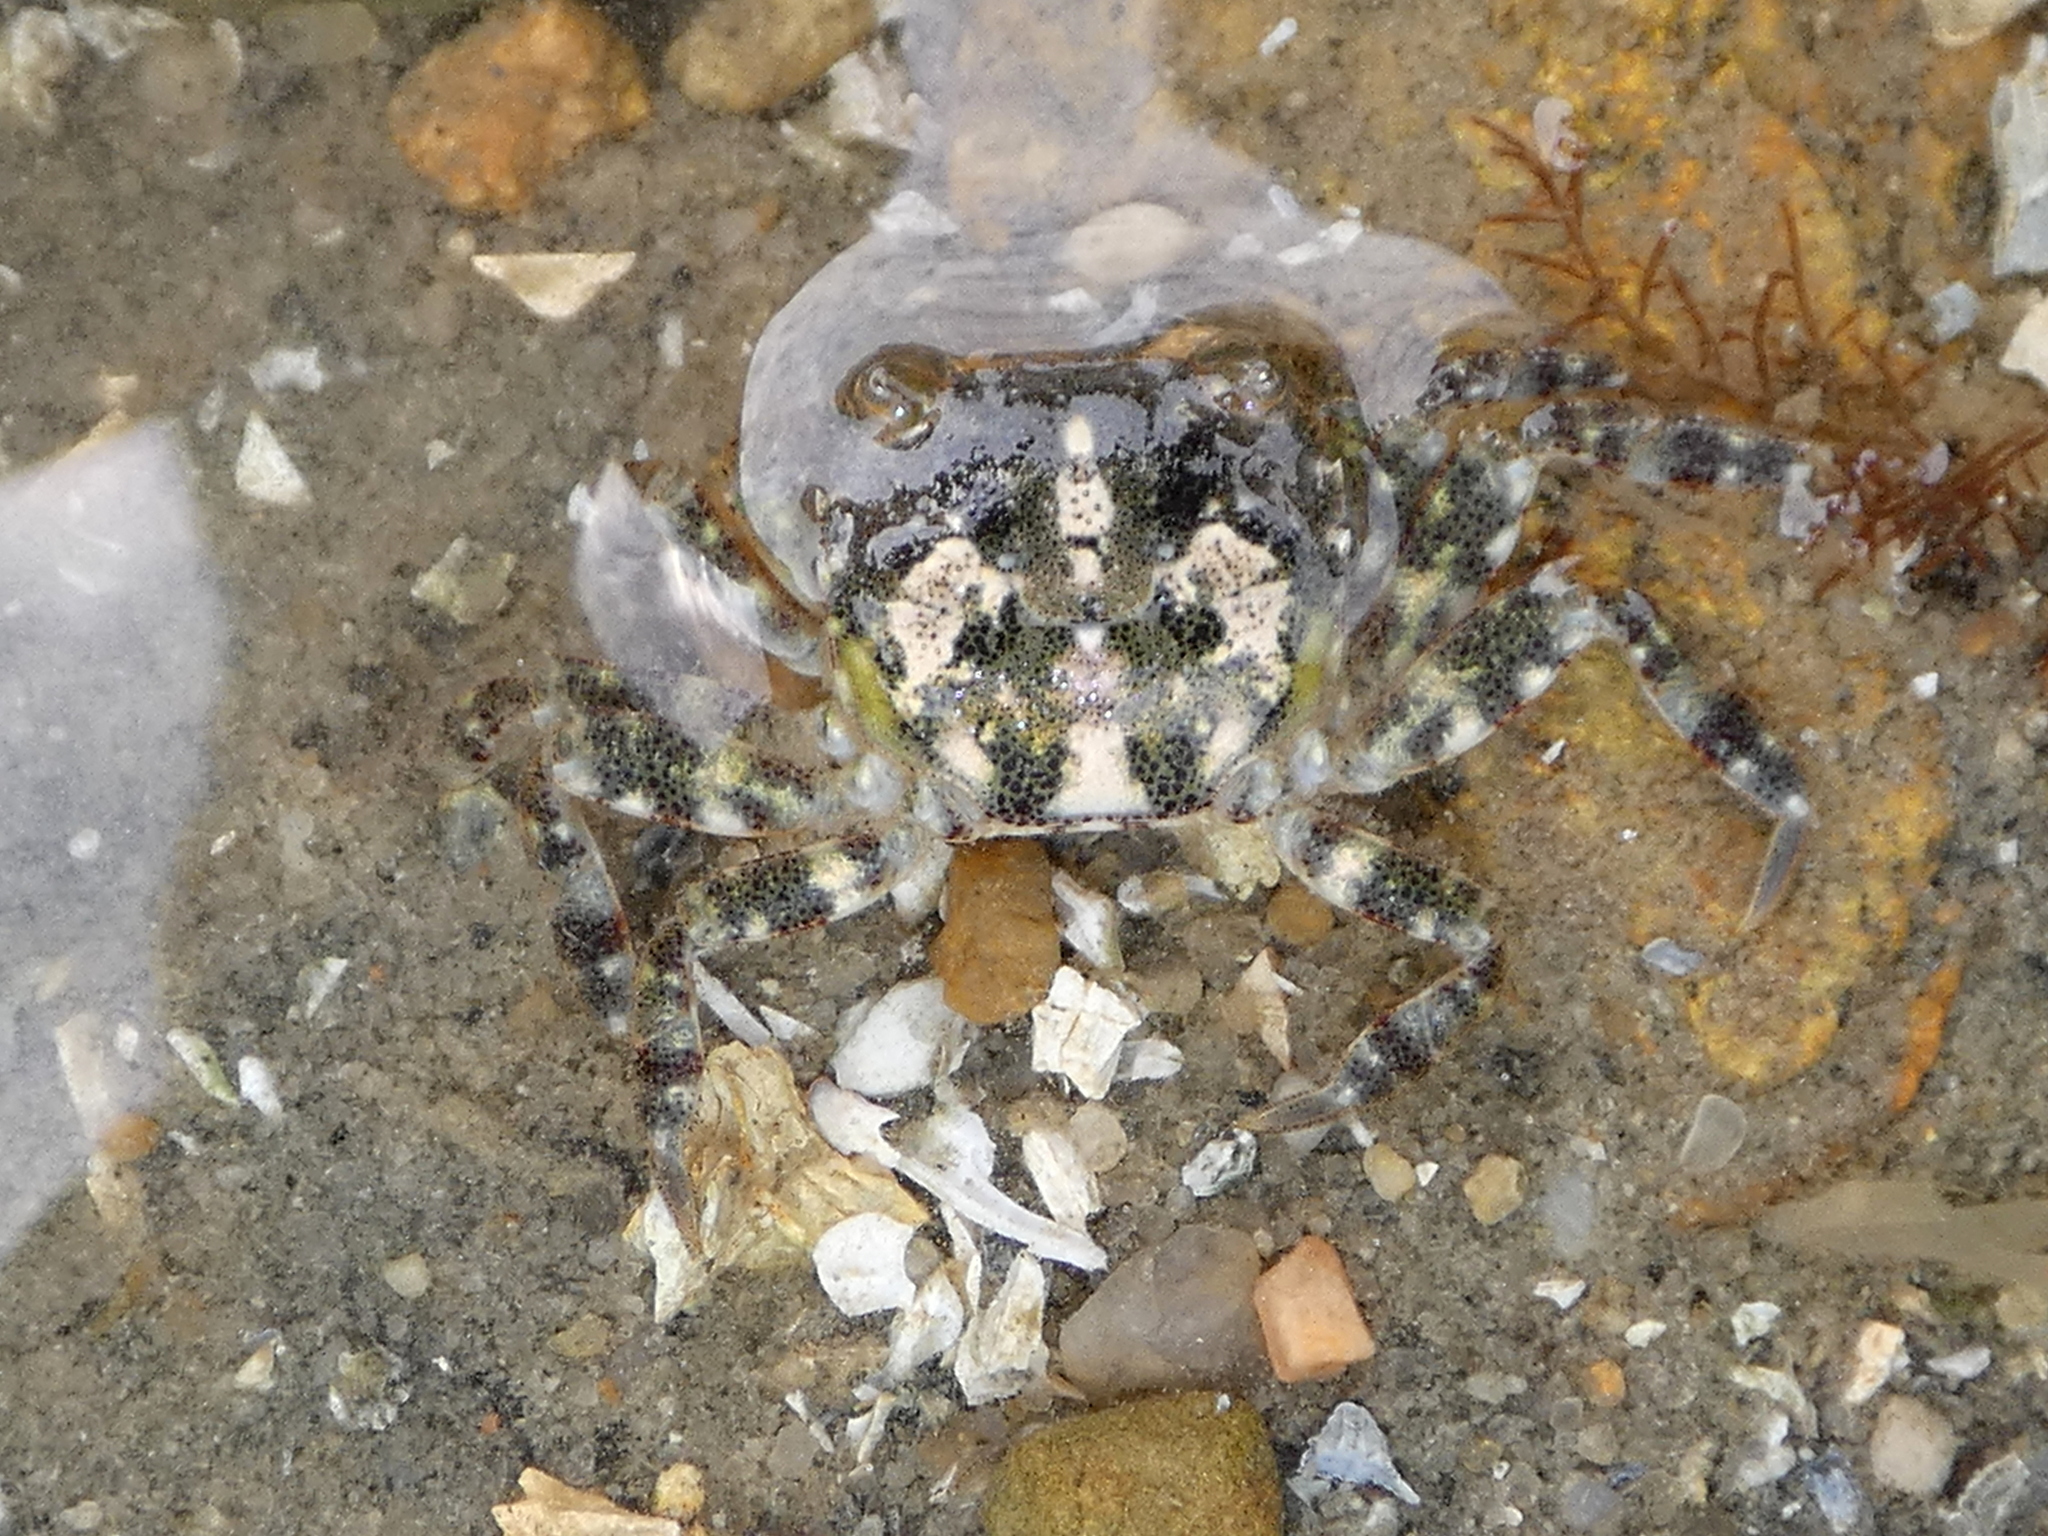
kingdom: Animalia
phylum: Arthropoda
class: Malacostraca
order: Decapoda
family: Varunidae
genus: Hemigrapsus
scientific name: Hemigrapsus sanguineus
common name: Asian shore crab
